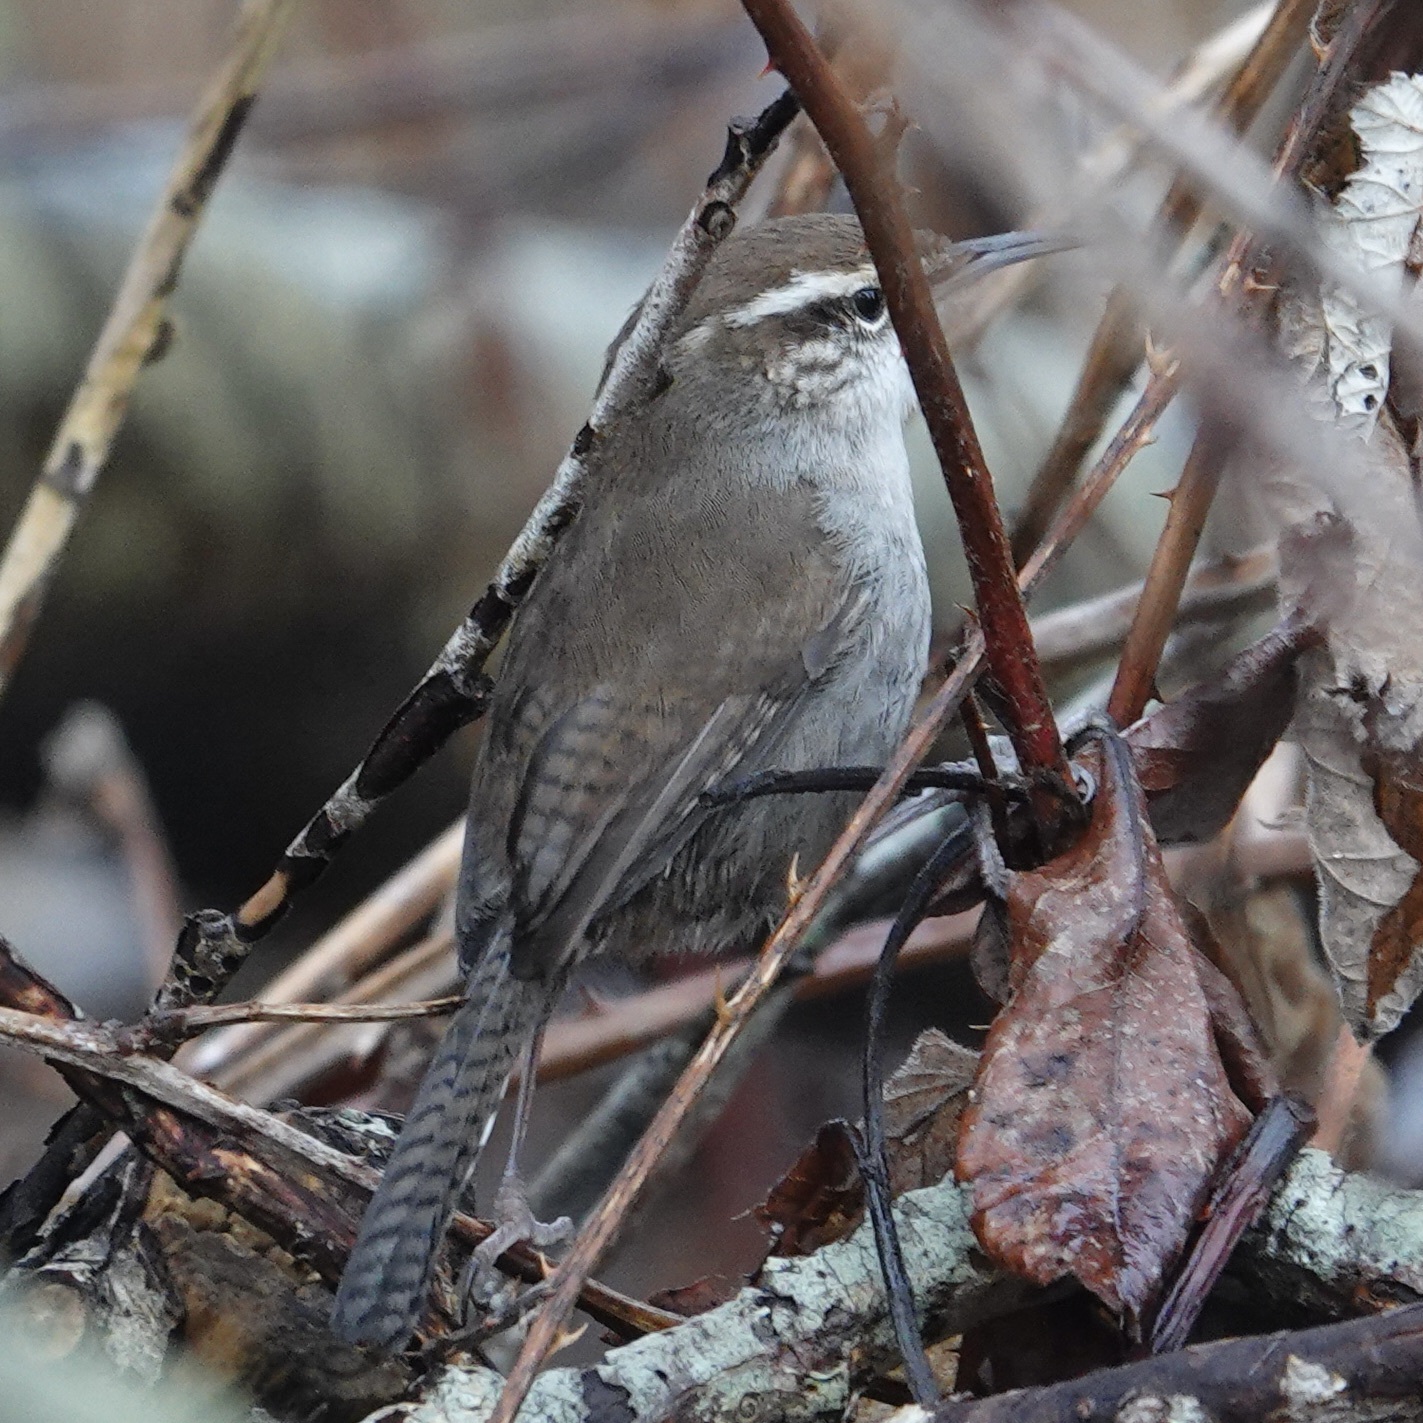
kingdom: Animalia
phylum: Chordata
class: Aves
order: Passeriformes
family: Troglodytidae
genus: Thryomanes
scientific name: Thryomanes bewickii
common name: Bewick's wren
